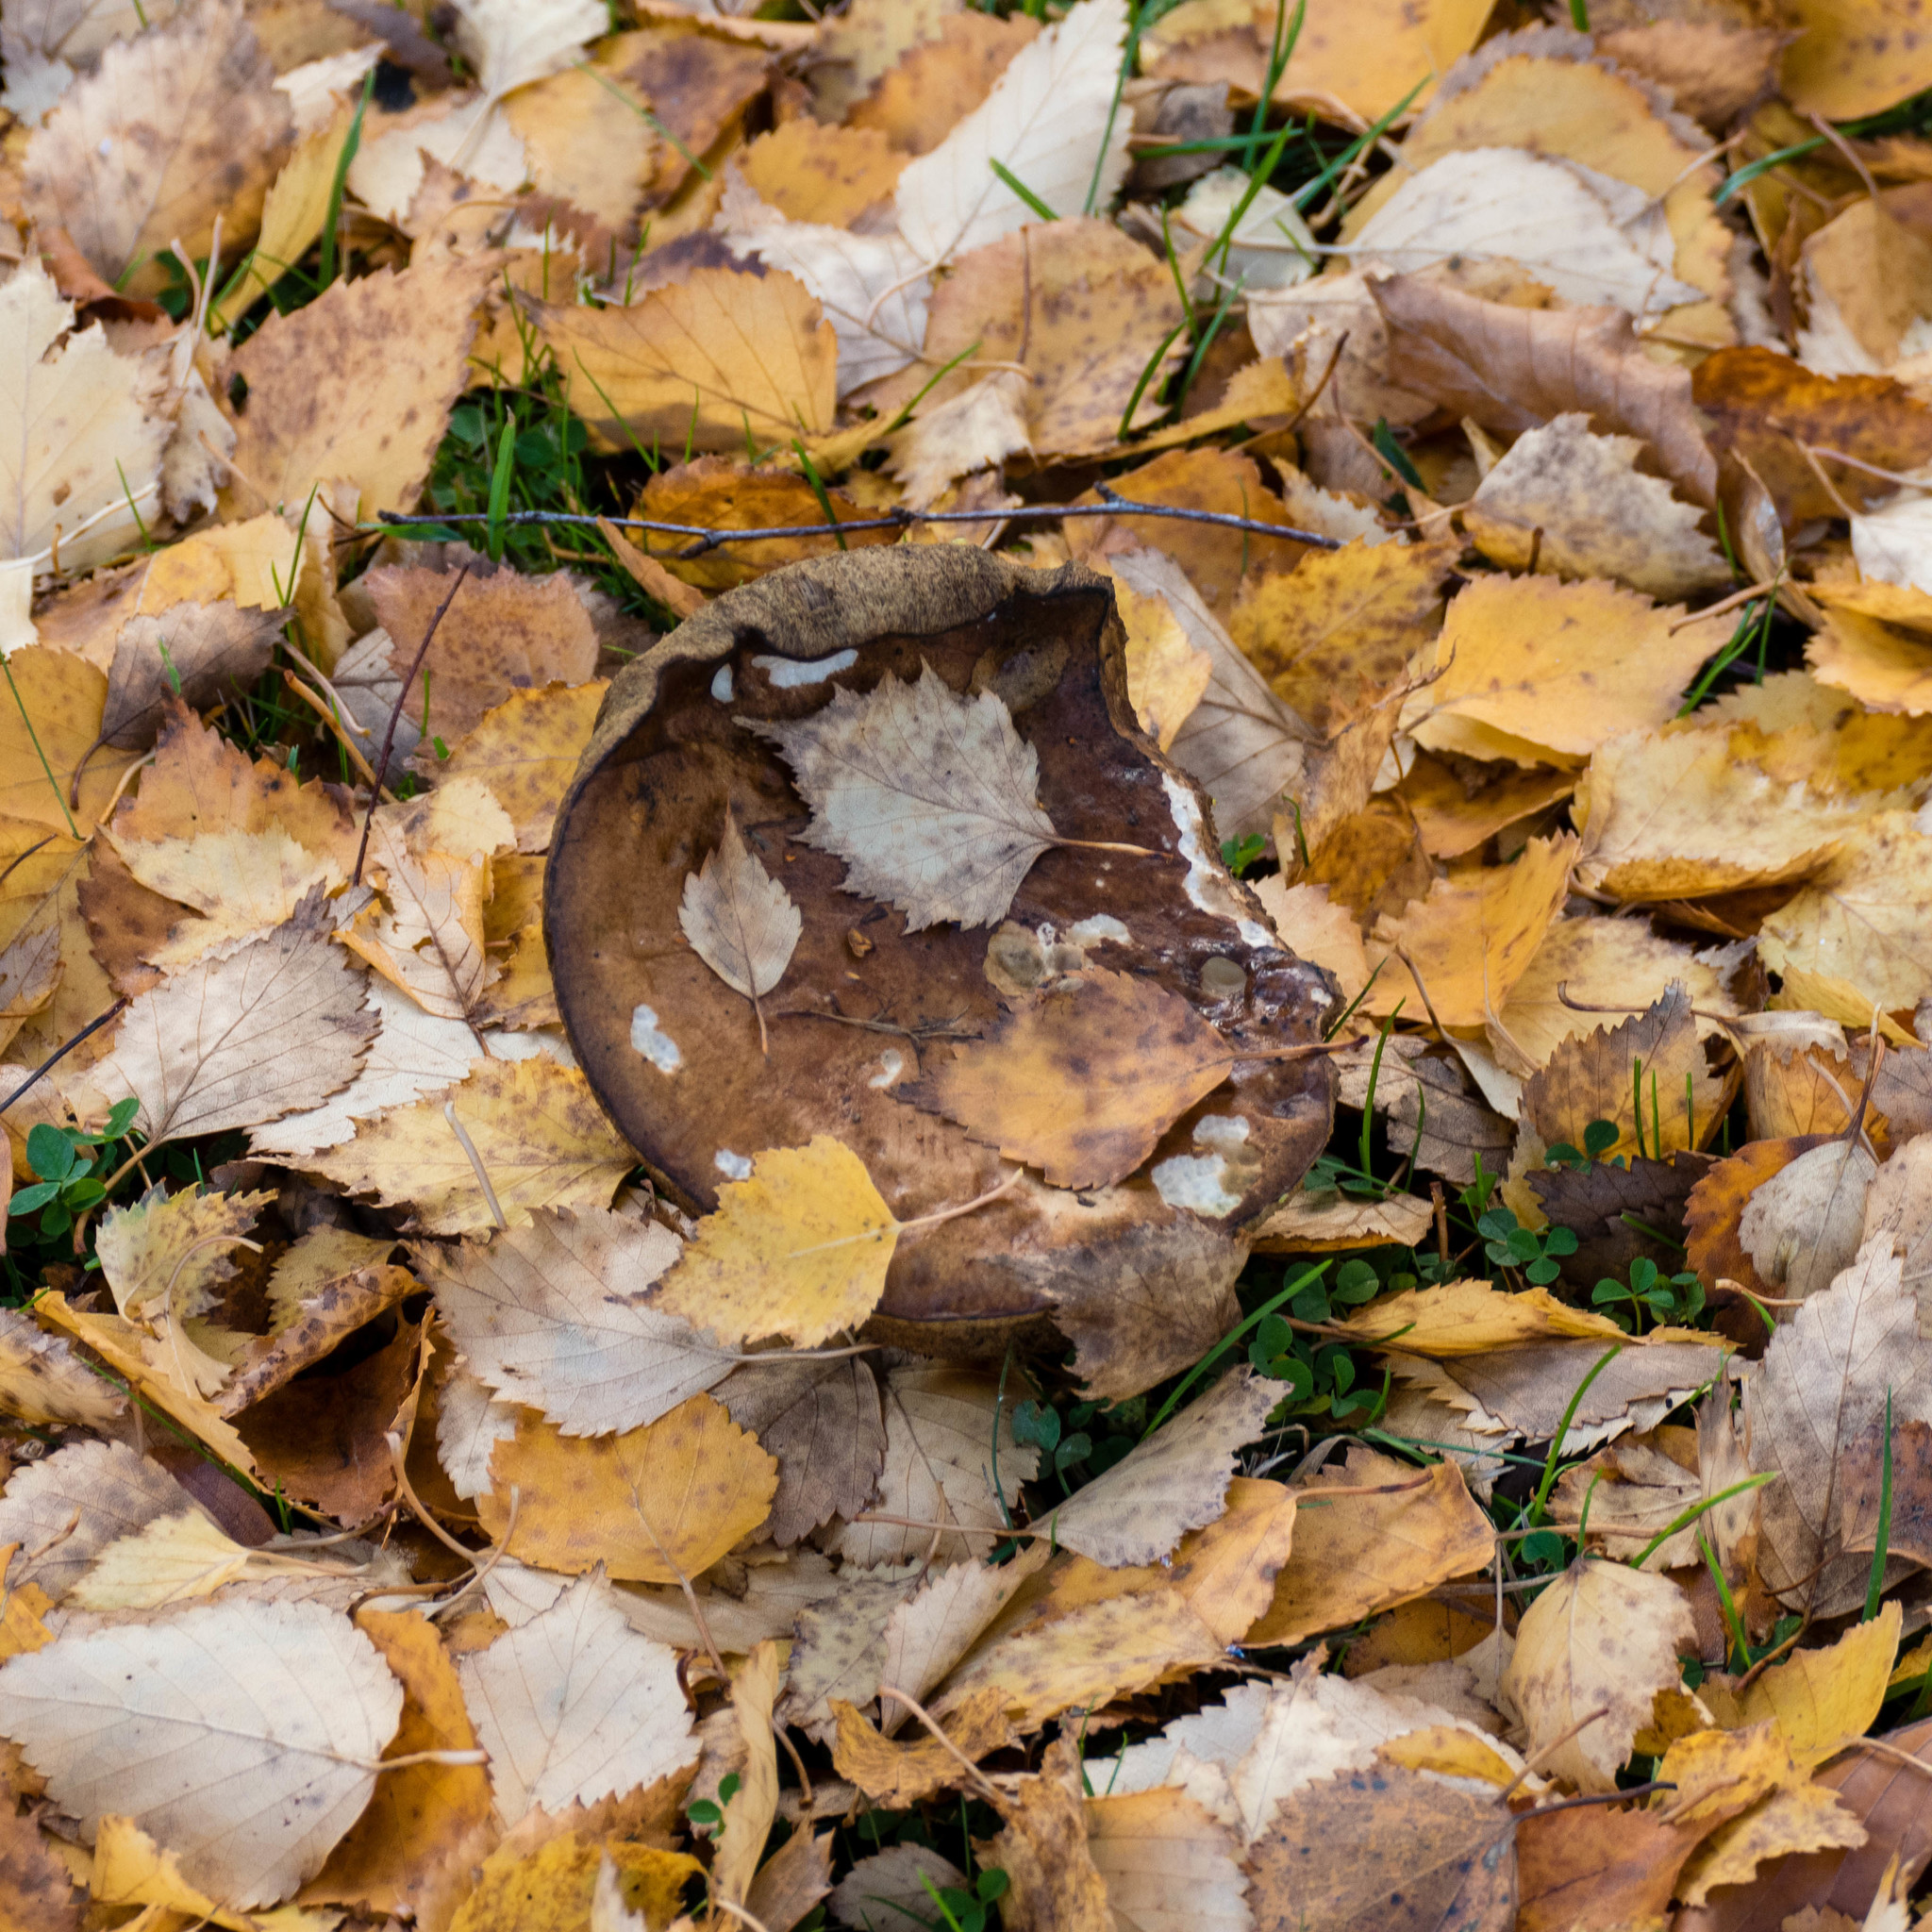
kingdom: Fungi
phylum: Basidiomycota
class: Agaricomycetes
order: Boletales
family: Boletaceae
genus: Leccinum
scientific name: Leccinum scabrum
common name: Blushing bolete
